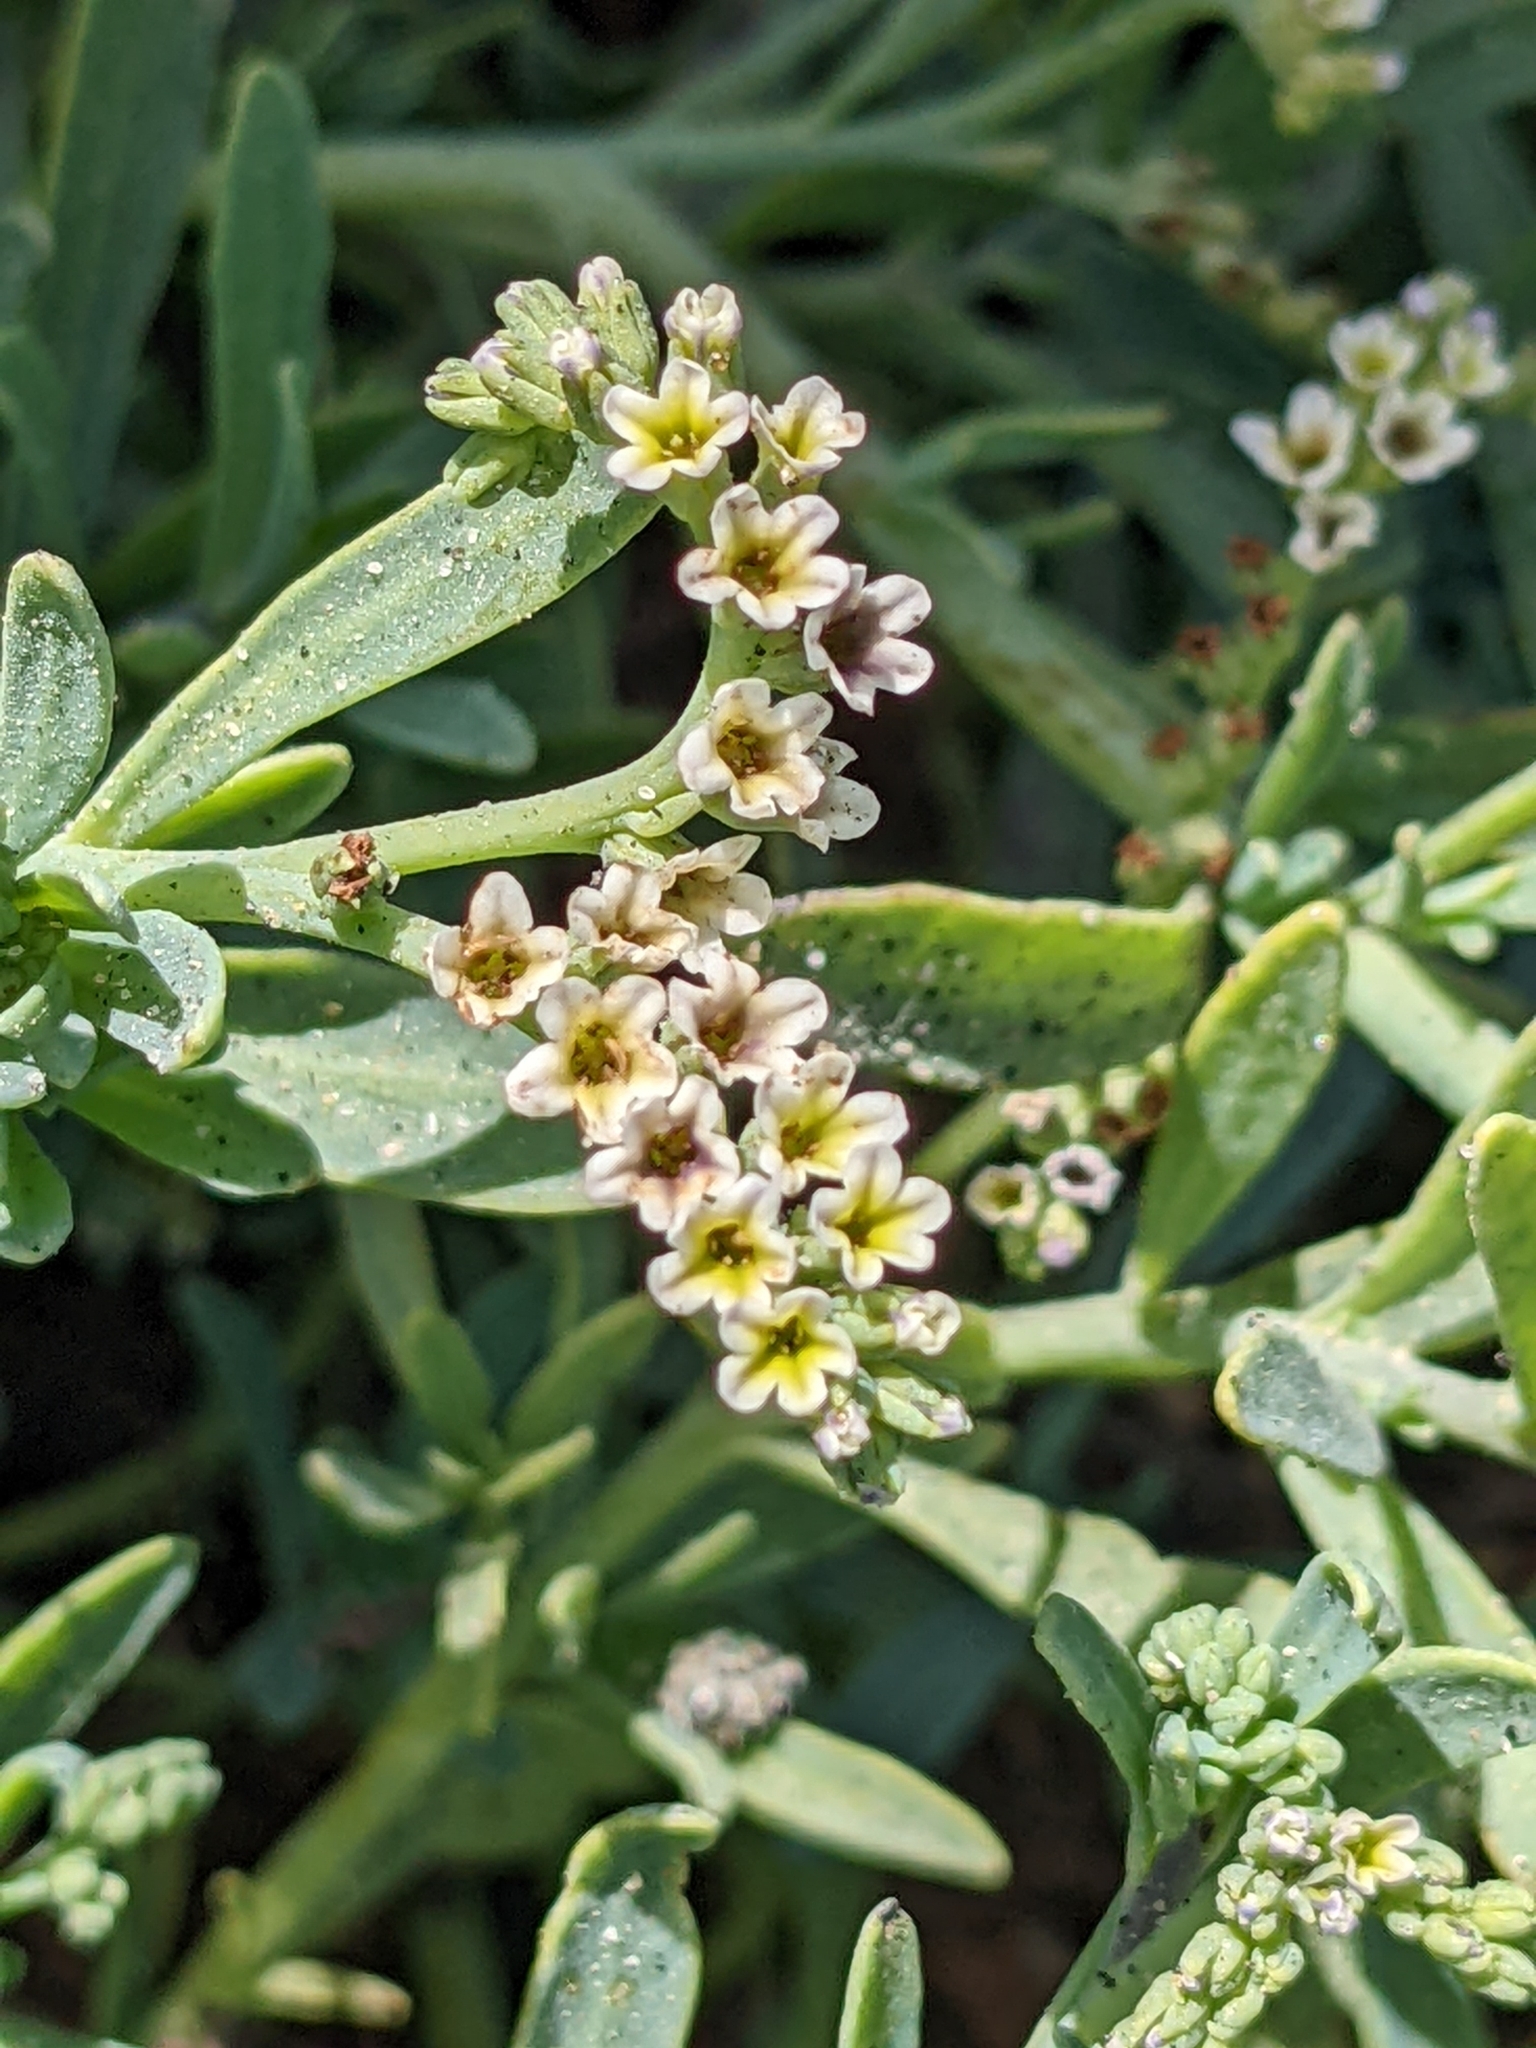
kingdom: Plantae
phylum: Tracheophyta
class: Magnoliopsida
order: Boraginales
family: Heliotropiaceae
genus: Heliotropium
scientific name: Heliotropium curassavicum
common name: Seaside heliotrope
